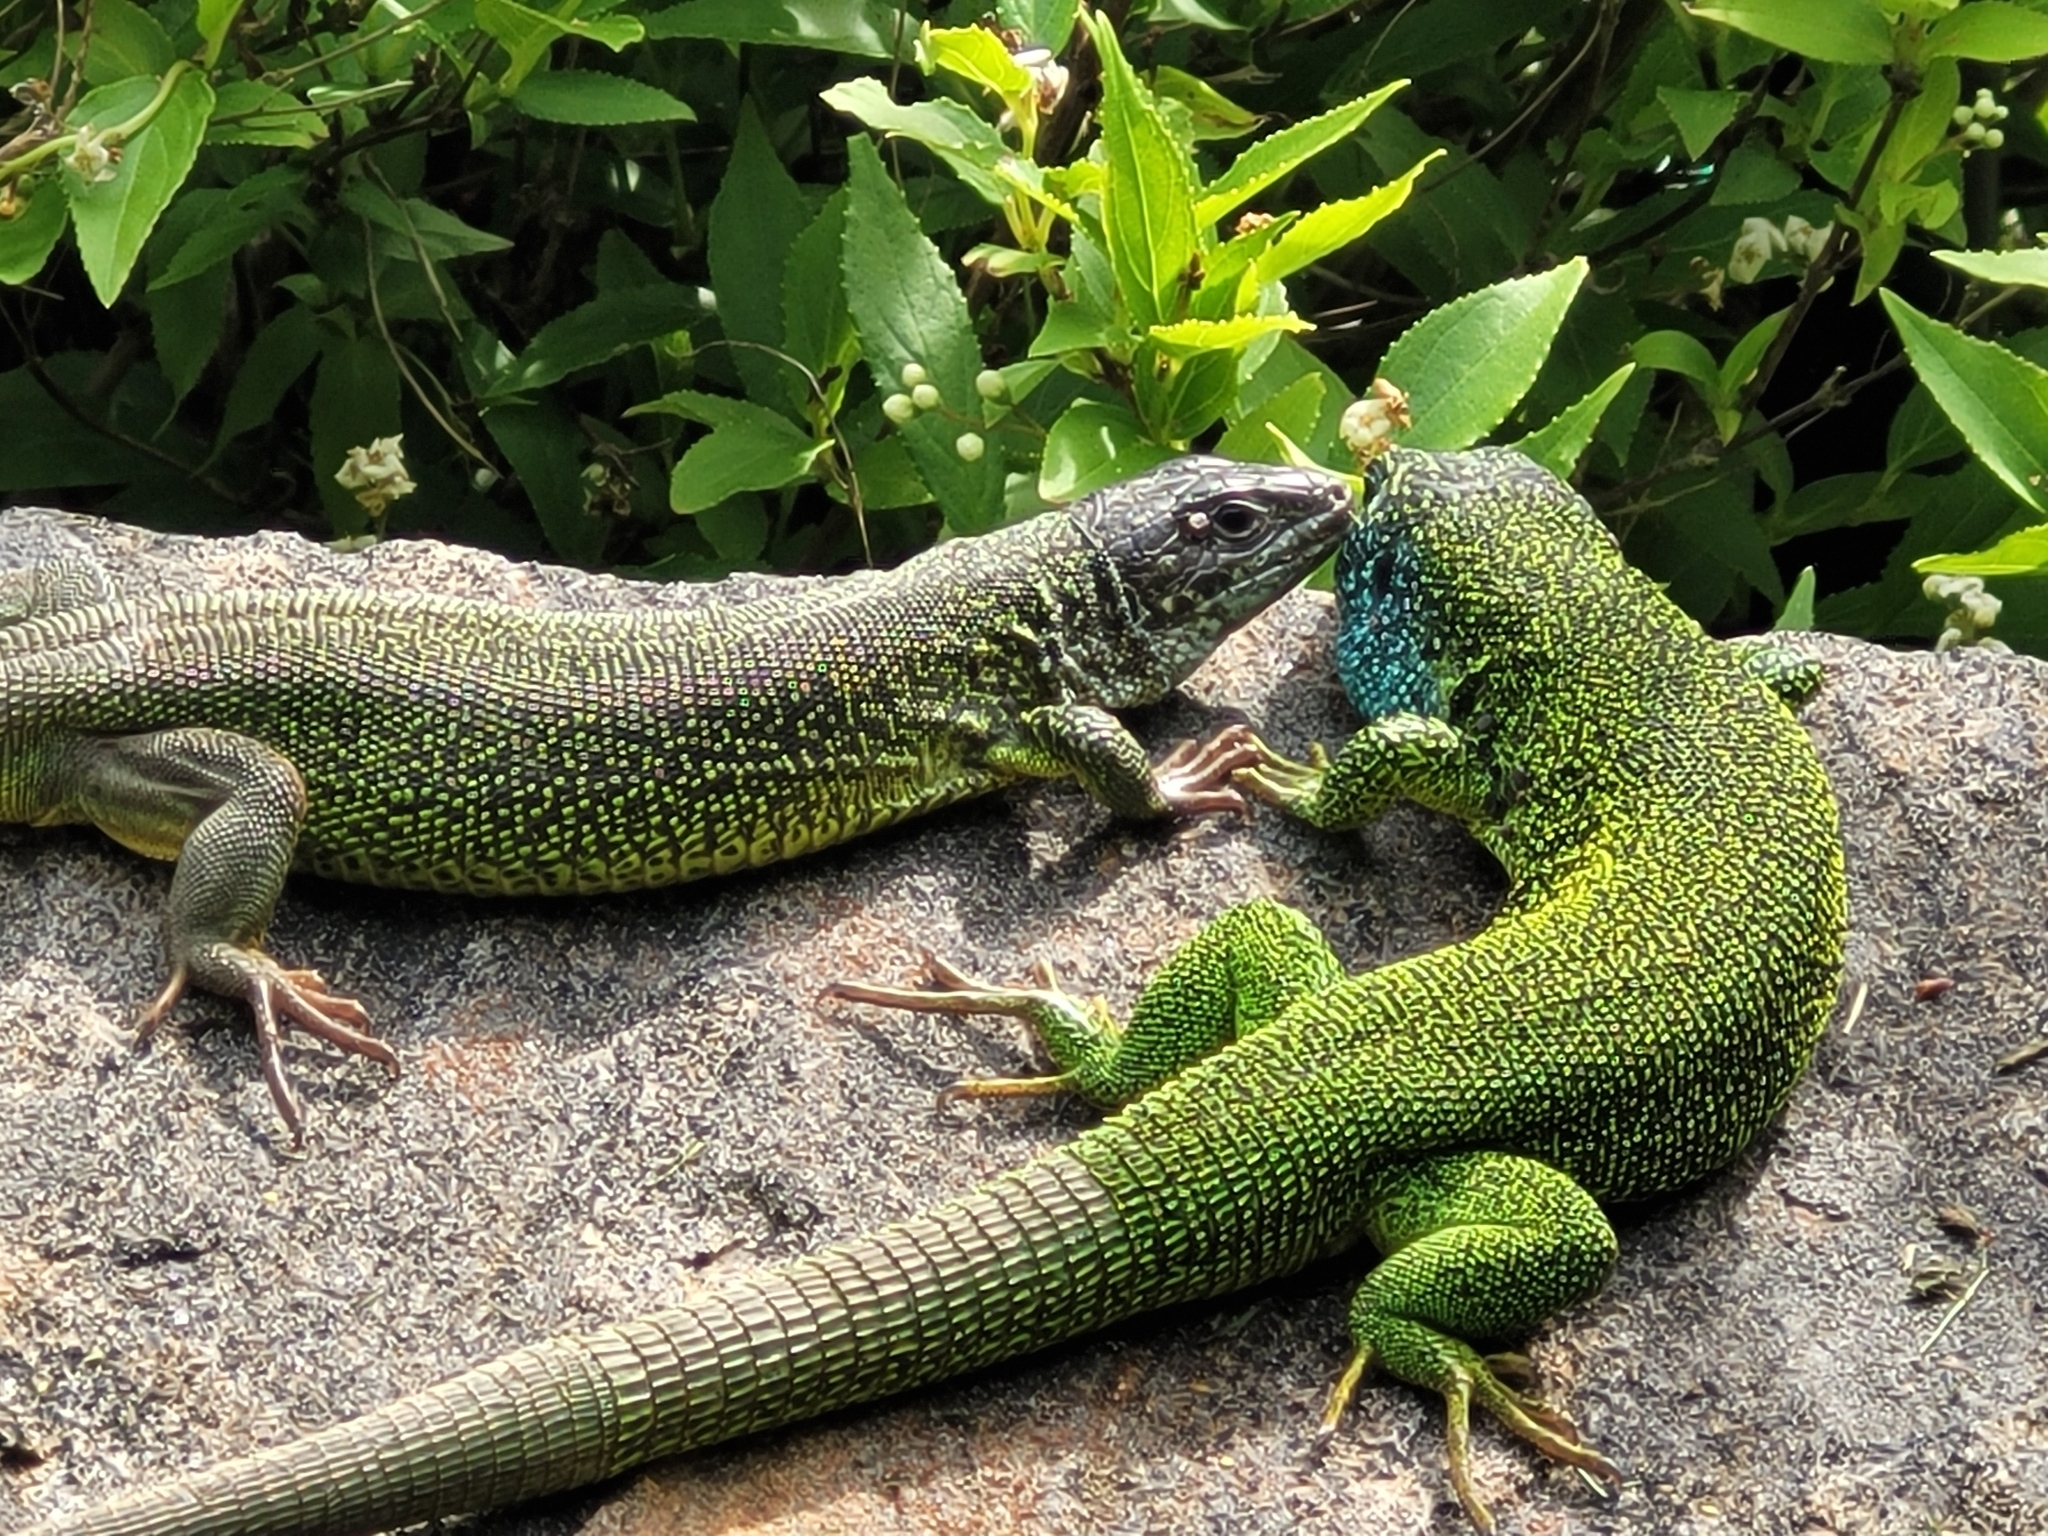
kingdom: Animalia
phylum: Chordata
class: Squamata
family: Lacertidae
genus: Lacerta
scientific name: Lacerta viridis
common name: European green lizard
